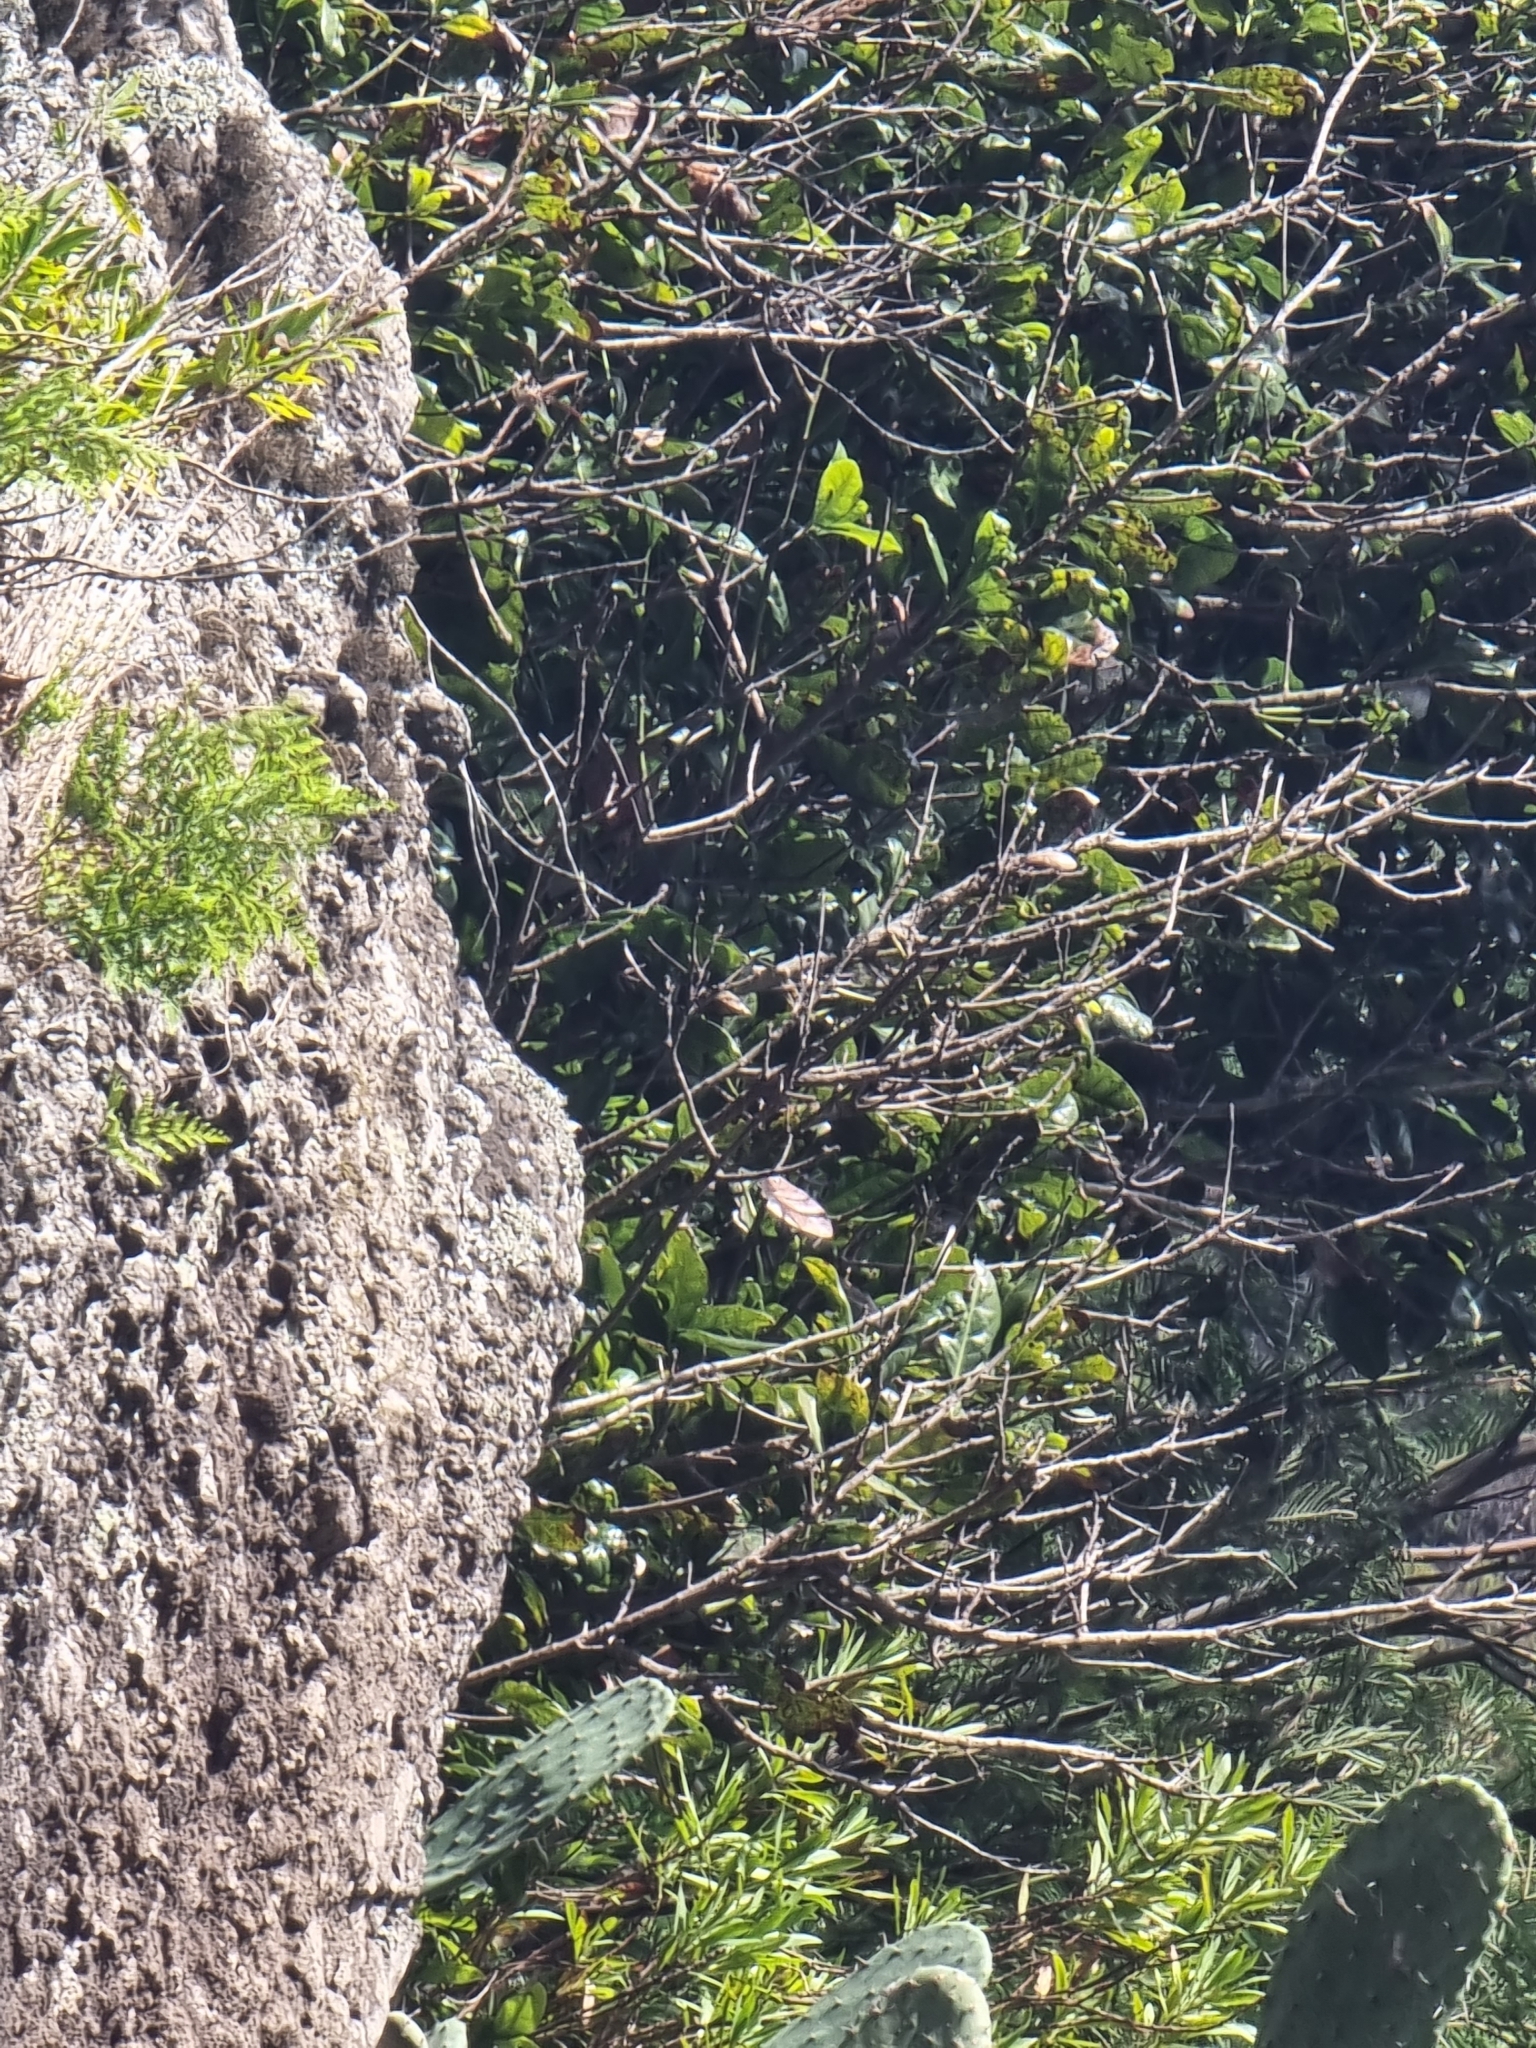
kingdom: Plantae
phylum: Tracheophyta
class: Magnoliopsida
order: Laurales
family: Lauraceae
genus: Apollonias
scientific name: Apollonias barbujana
